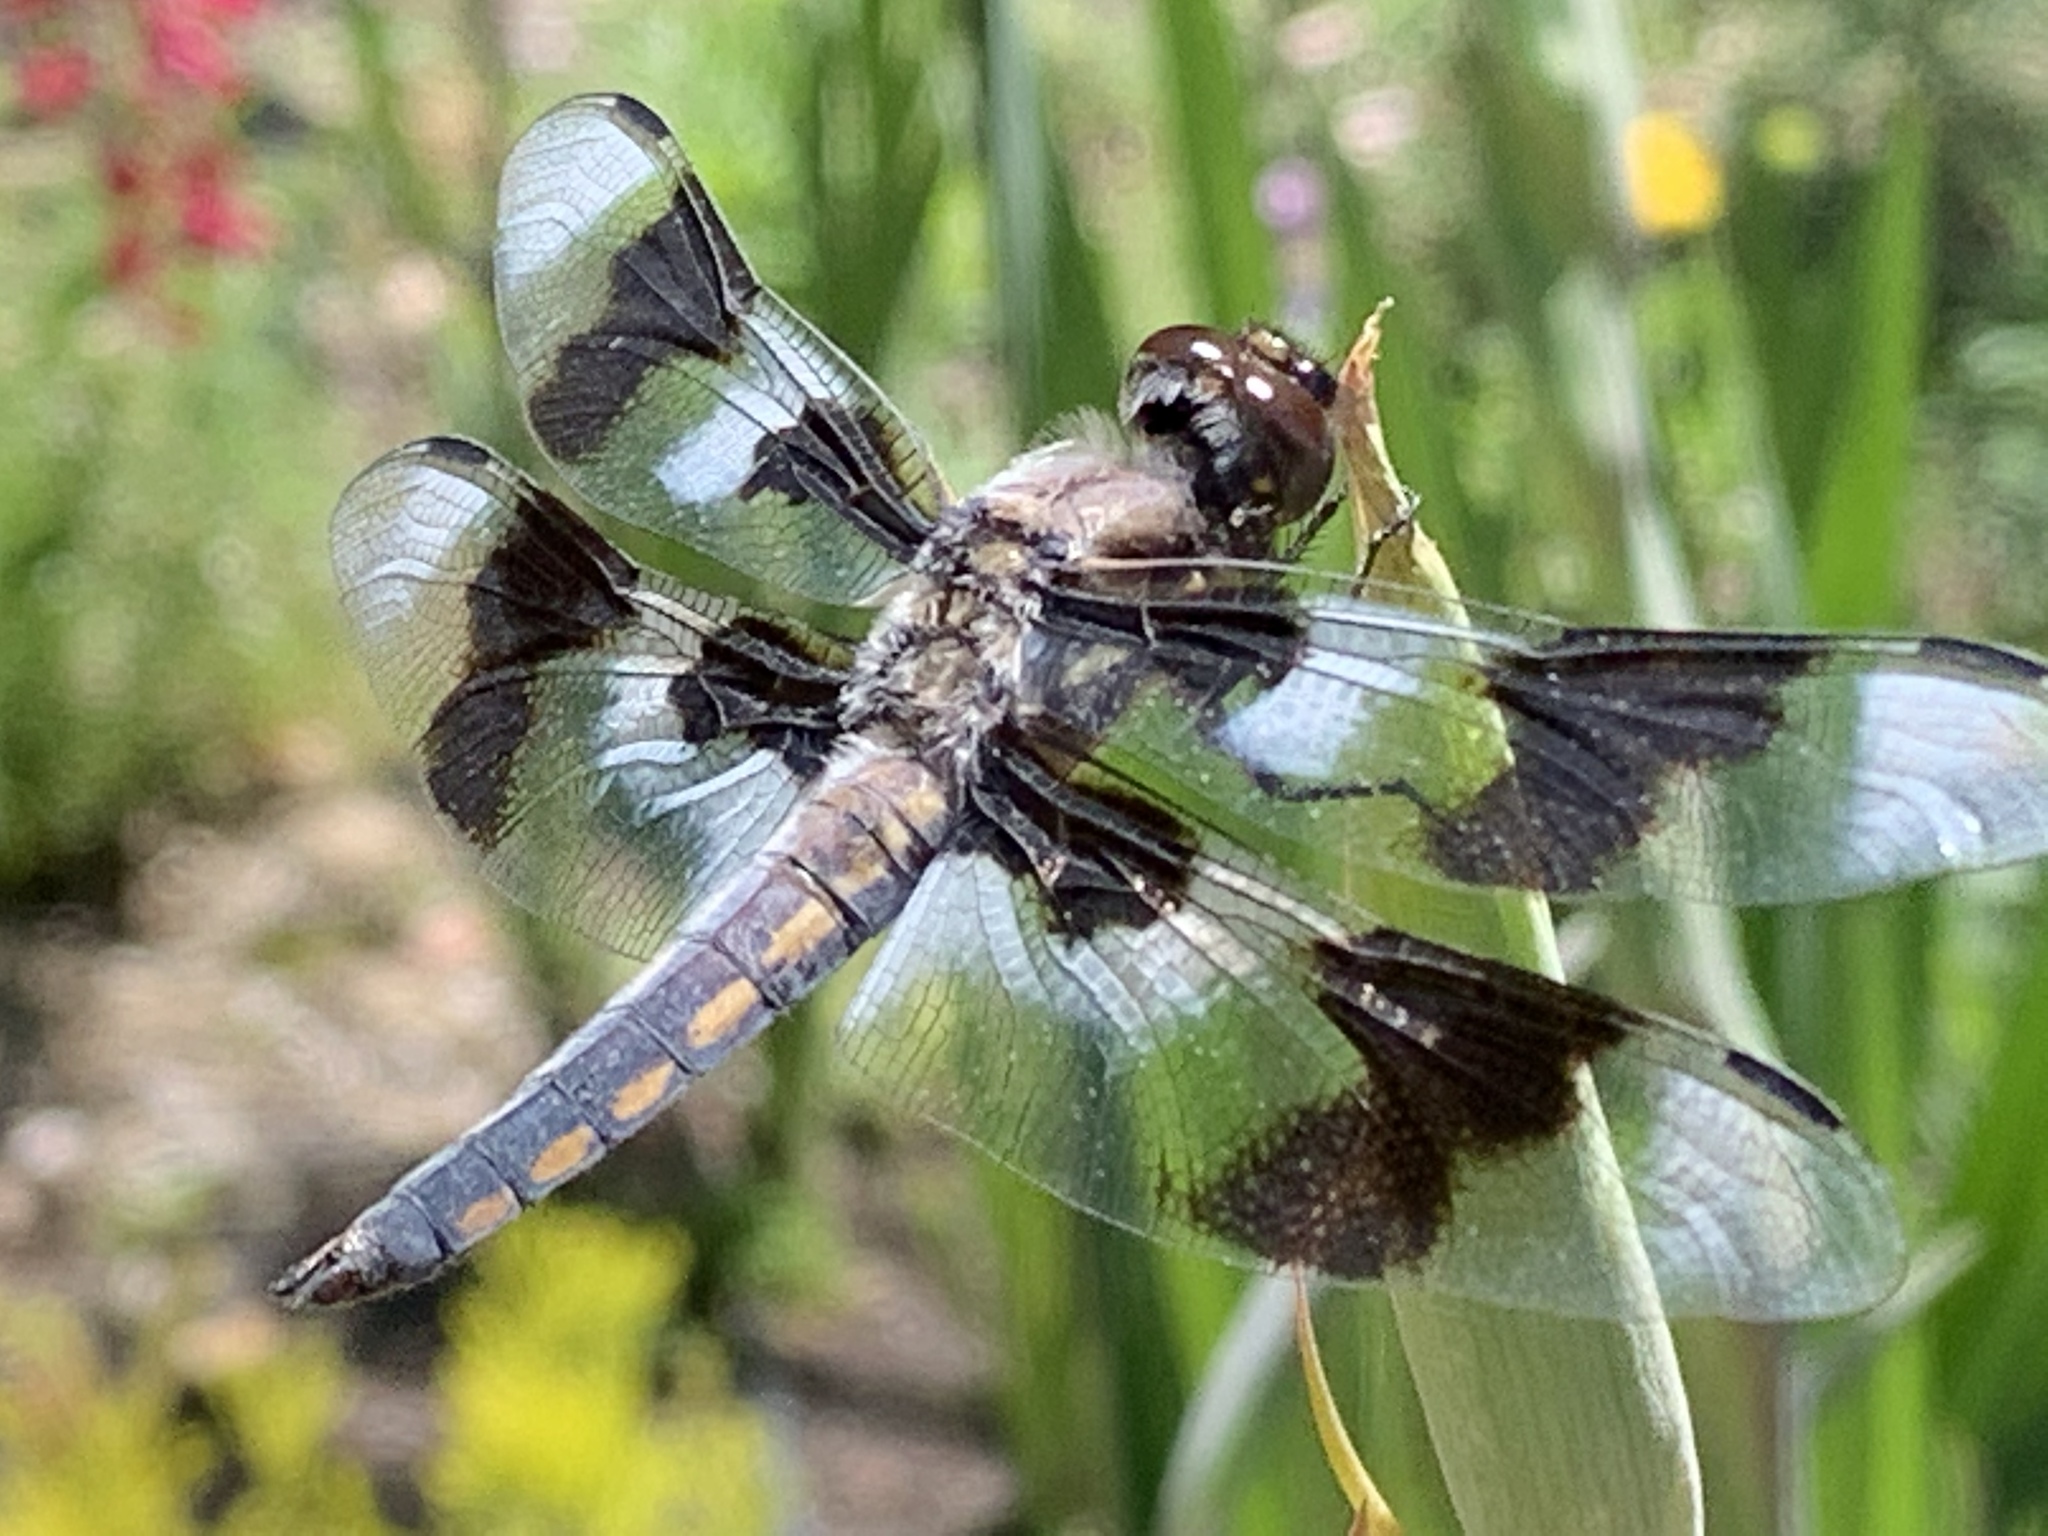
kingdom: Animalia
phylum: Arthropoda
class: Insecta
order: Odonata
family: Libellulidae
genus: Libellula
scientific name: Libellula forensis
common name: Eight-spotted skimmer
